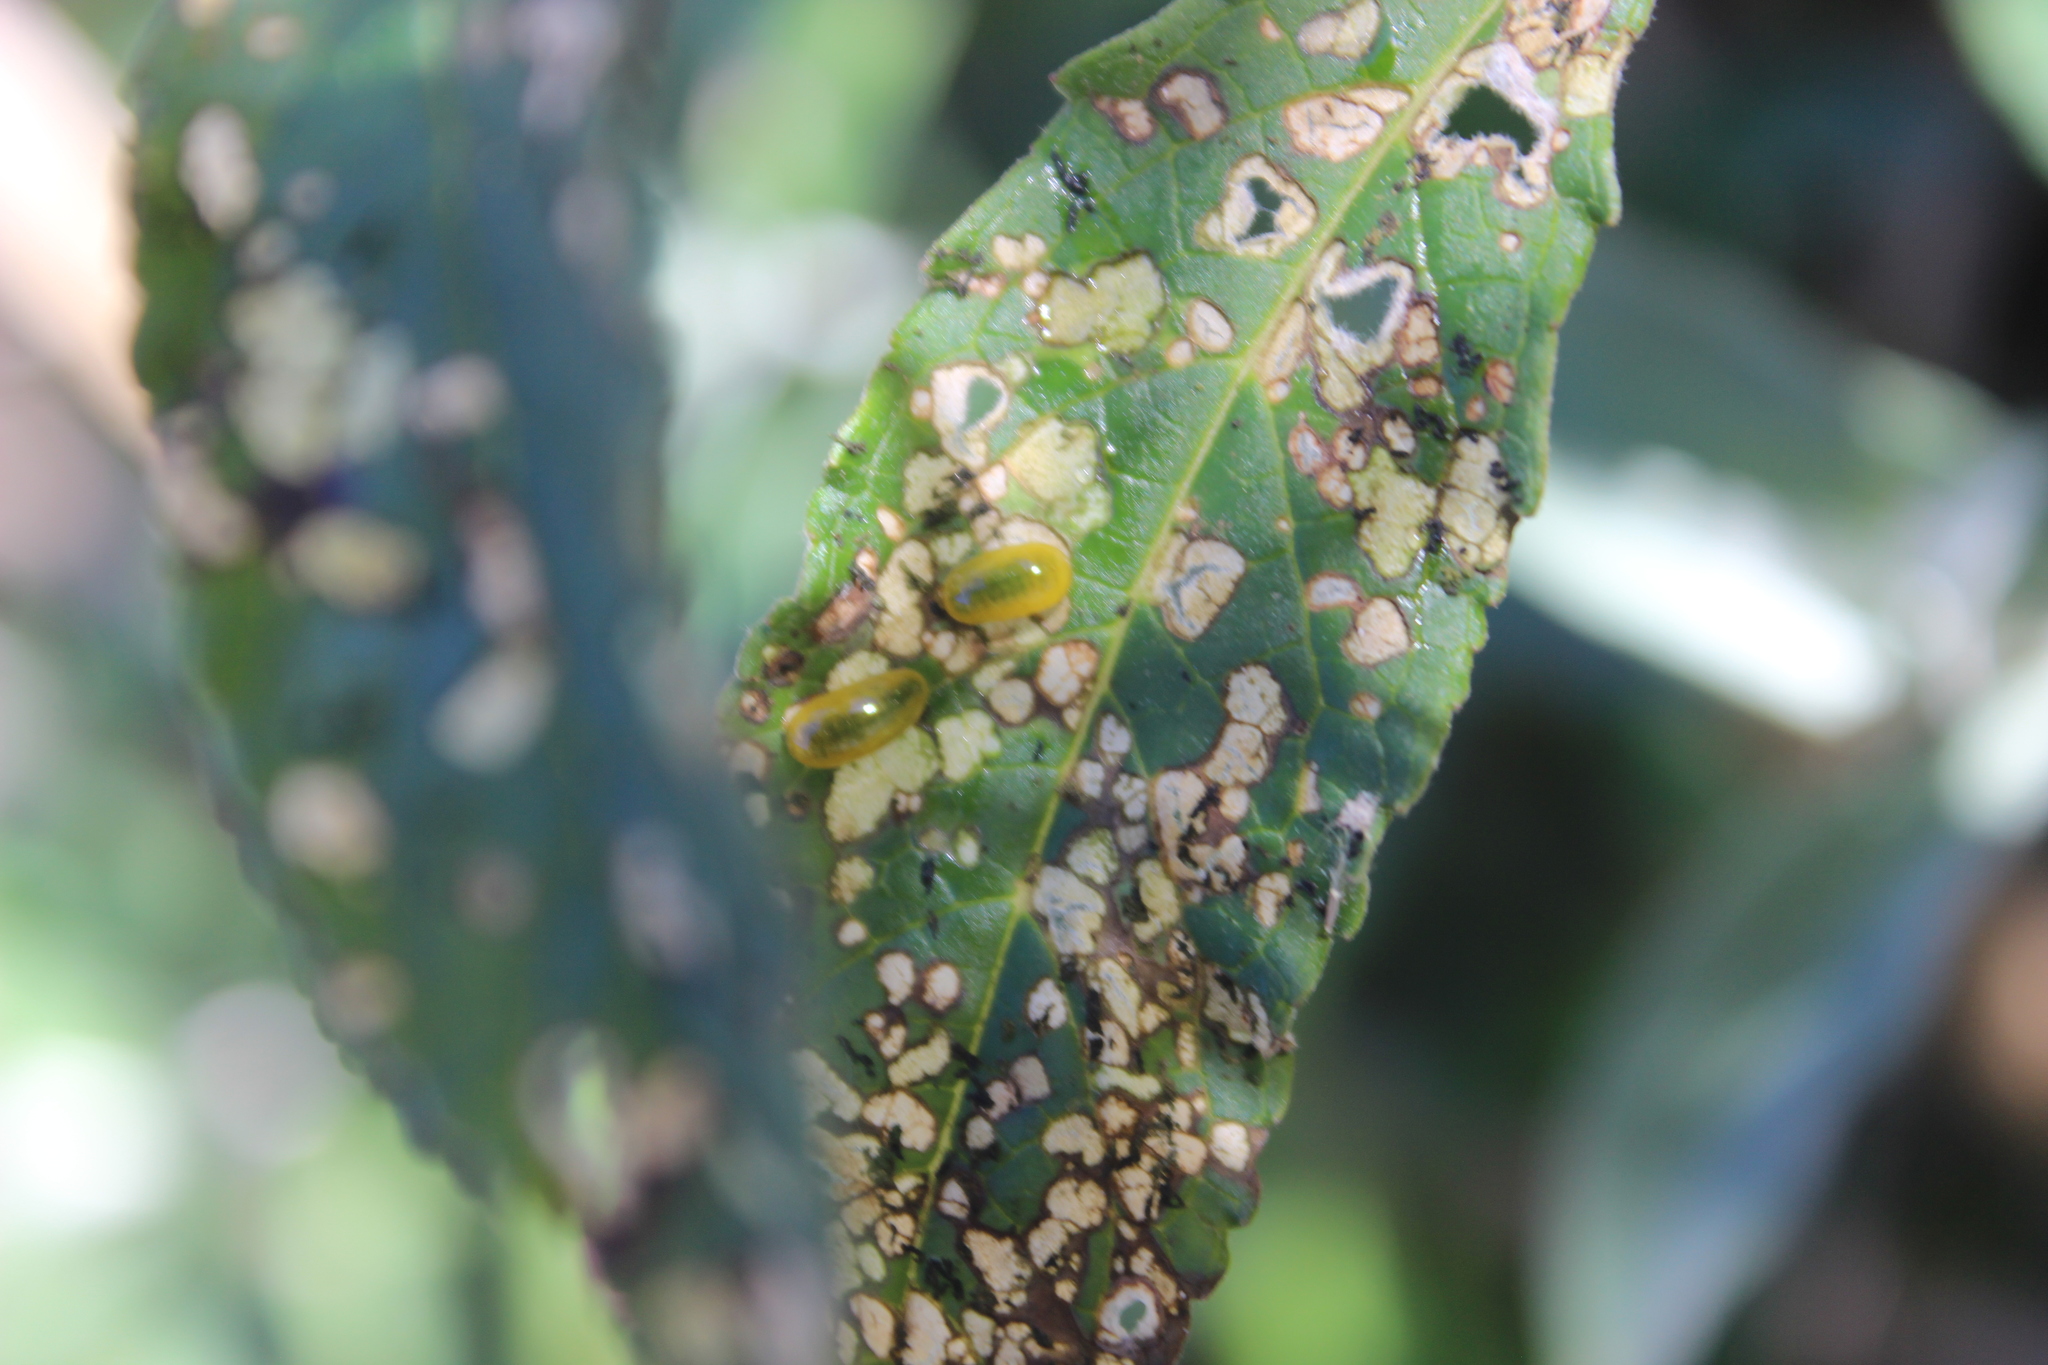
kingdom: Plantae
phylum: Tracheophyta
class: Magnoliopsida
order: Lamiales
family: Scrophulariaceae
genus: Buddleja
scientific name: Buddleja davidii
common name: Butterfly-bush
